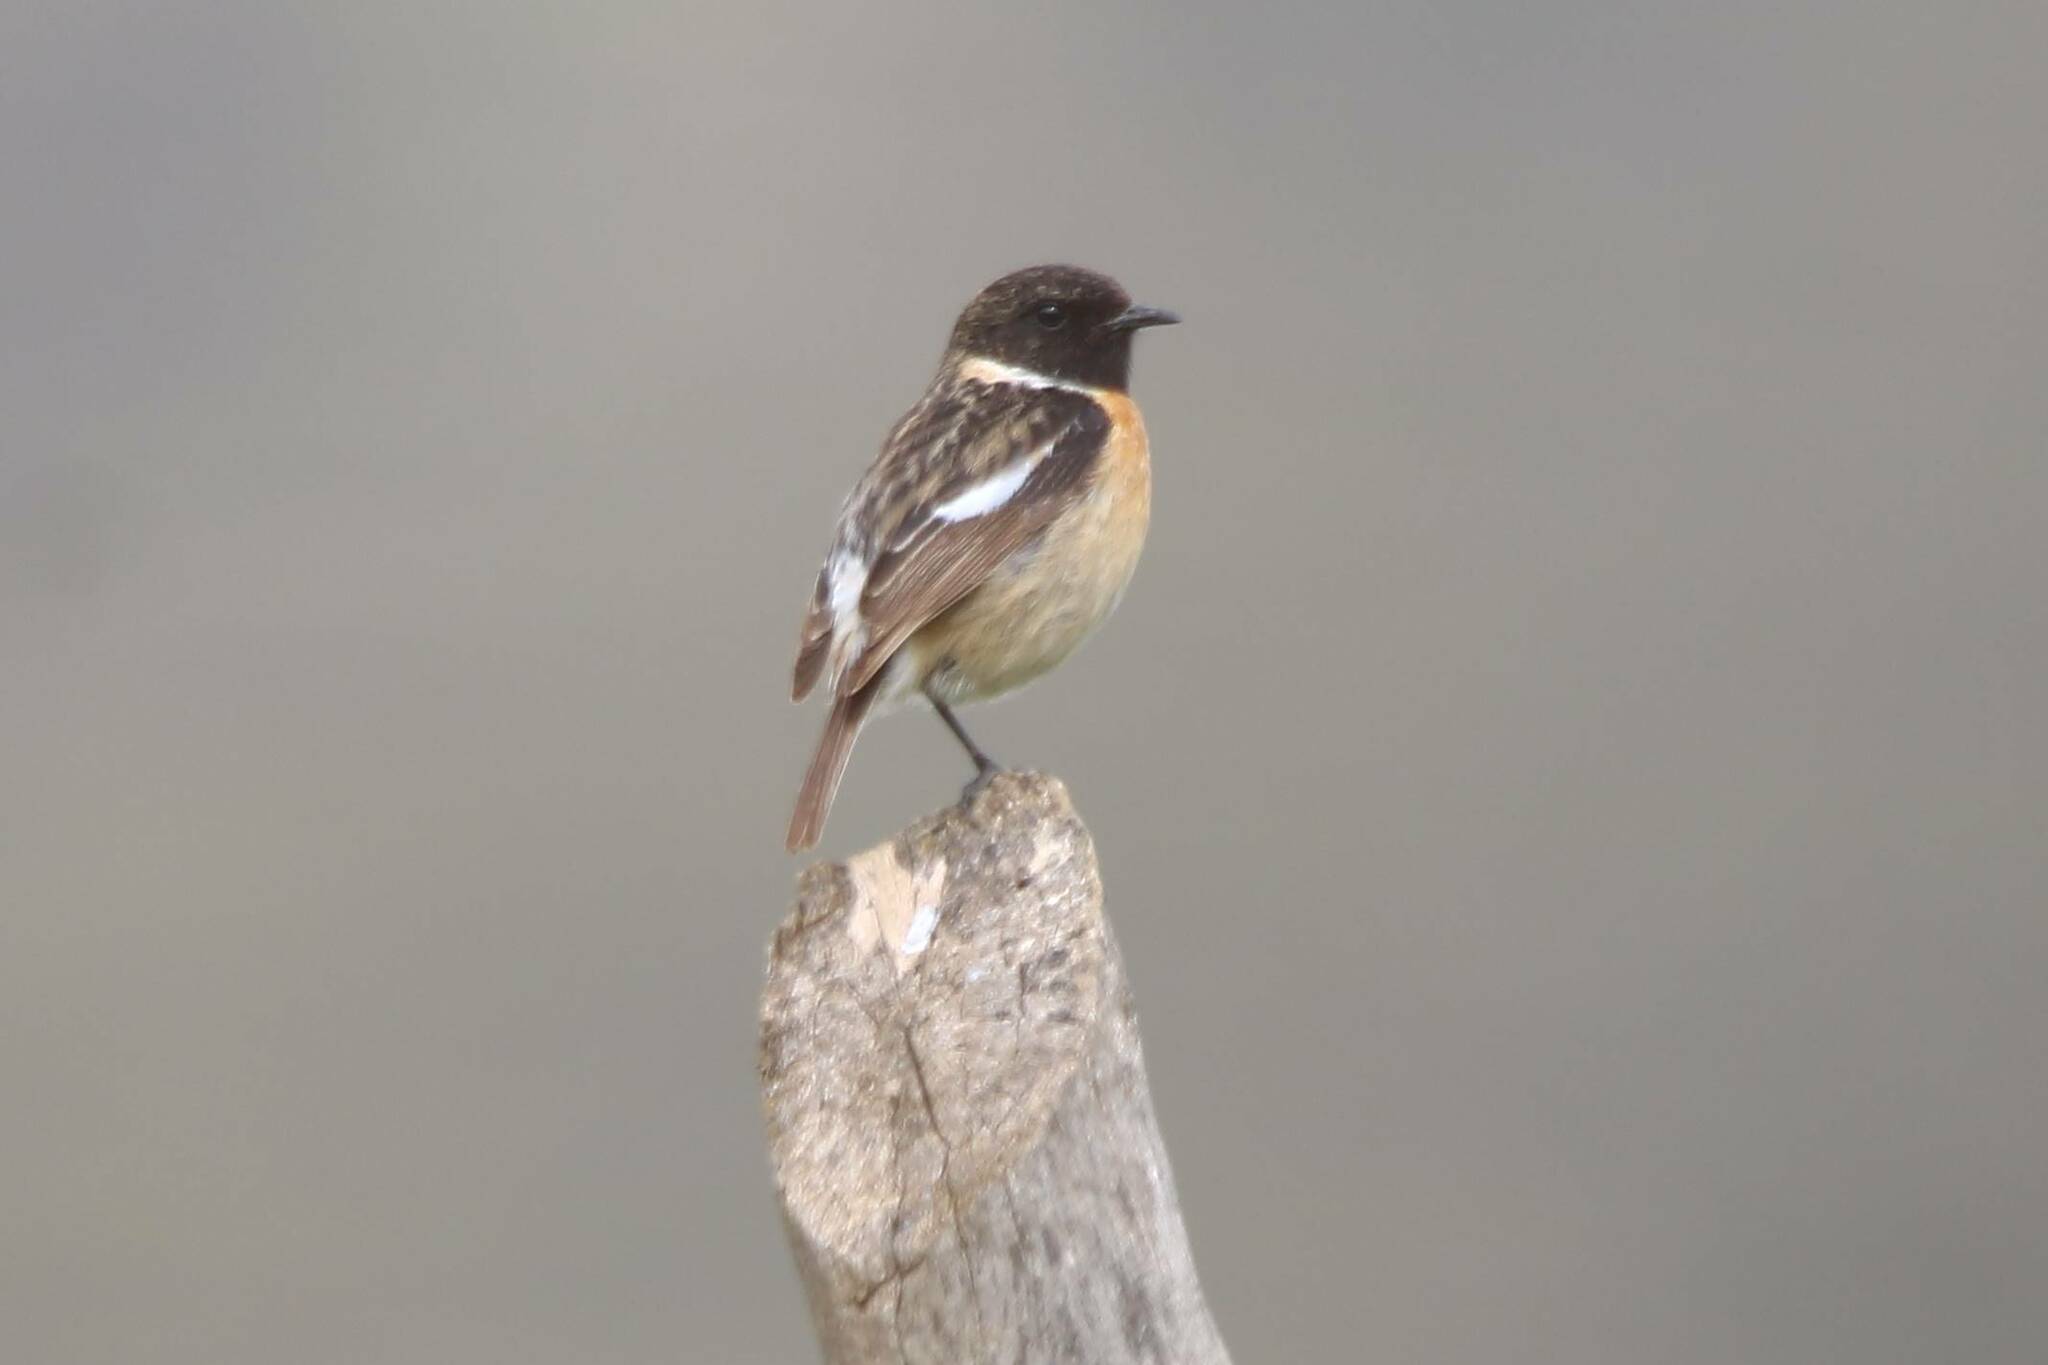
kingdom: Animalia
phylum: Chordata
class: Aves
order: Passeriformes
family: Muscicapidae
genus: Saxicola
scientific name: Saxicola rubicola
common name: European stonechat
